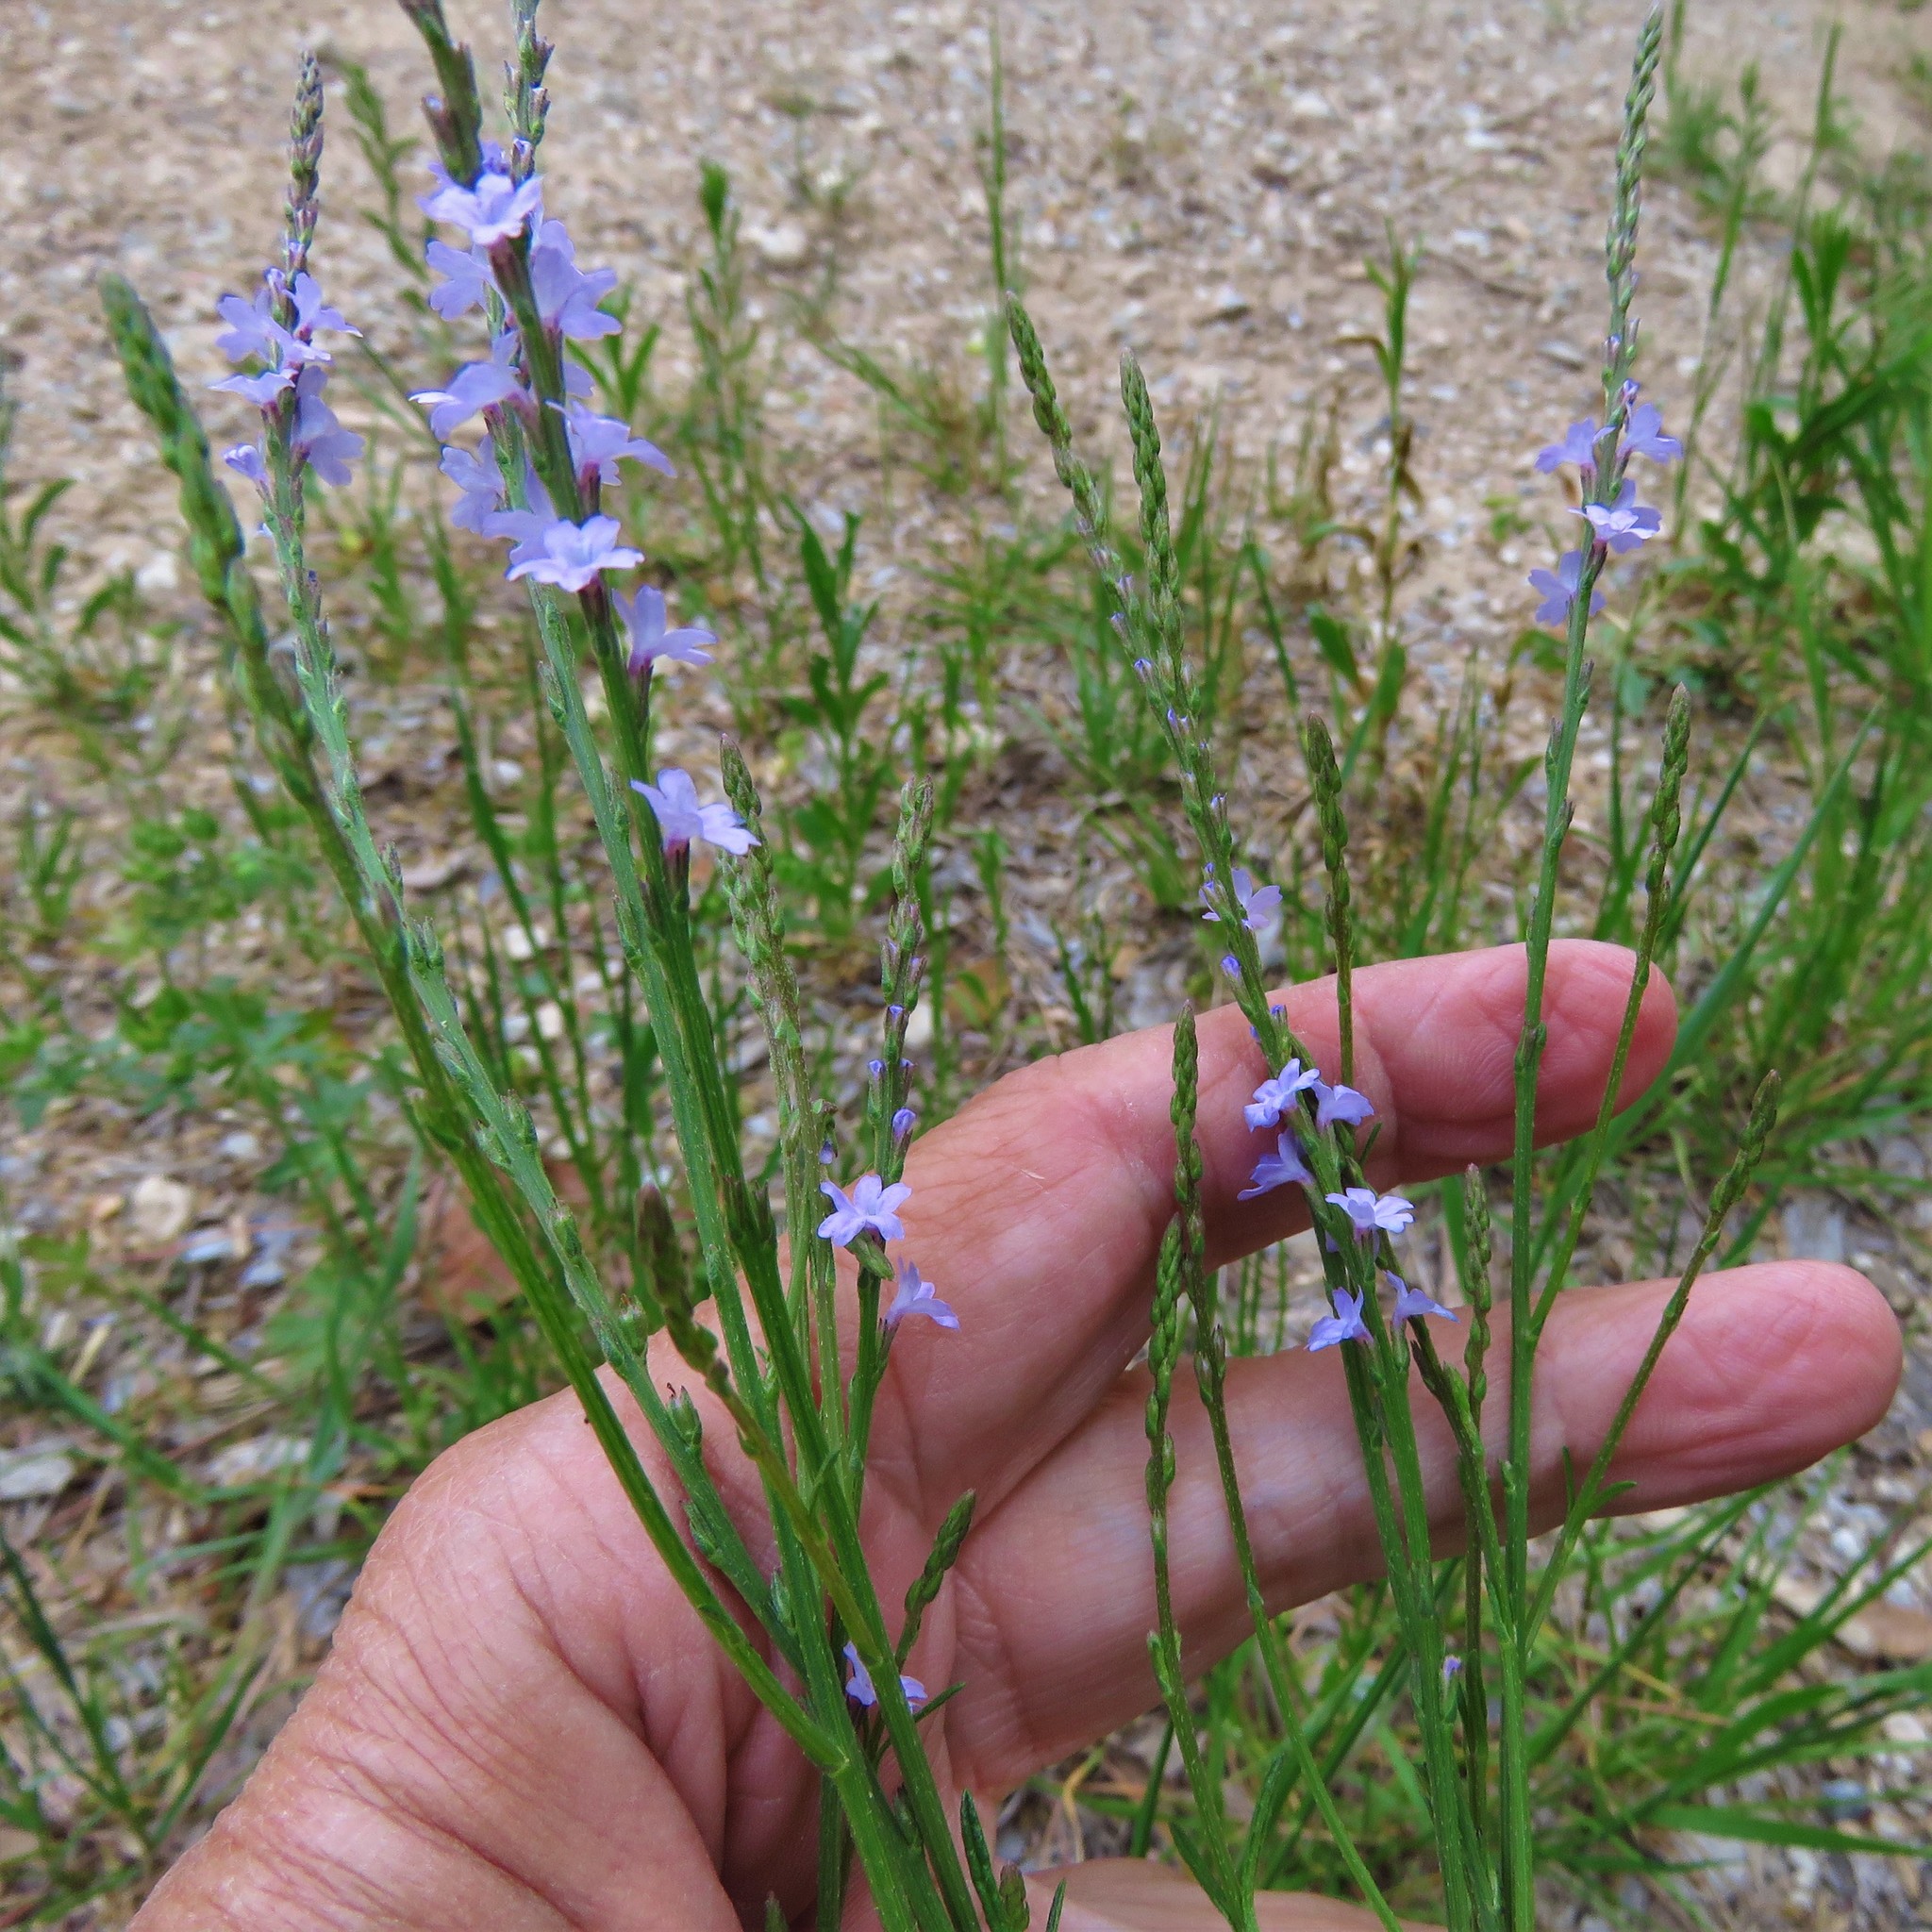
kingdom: Plantae
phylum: Tracheophyta
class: Magnoliopsida
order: Lamiales
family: Verbenaceae
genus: Verbena
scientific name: Verbena halei
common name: Texas vervain
